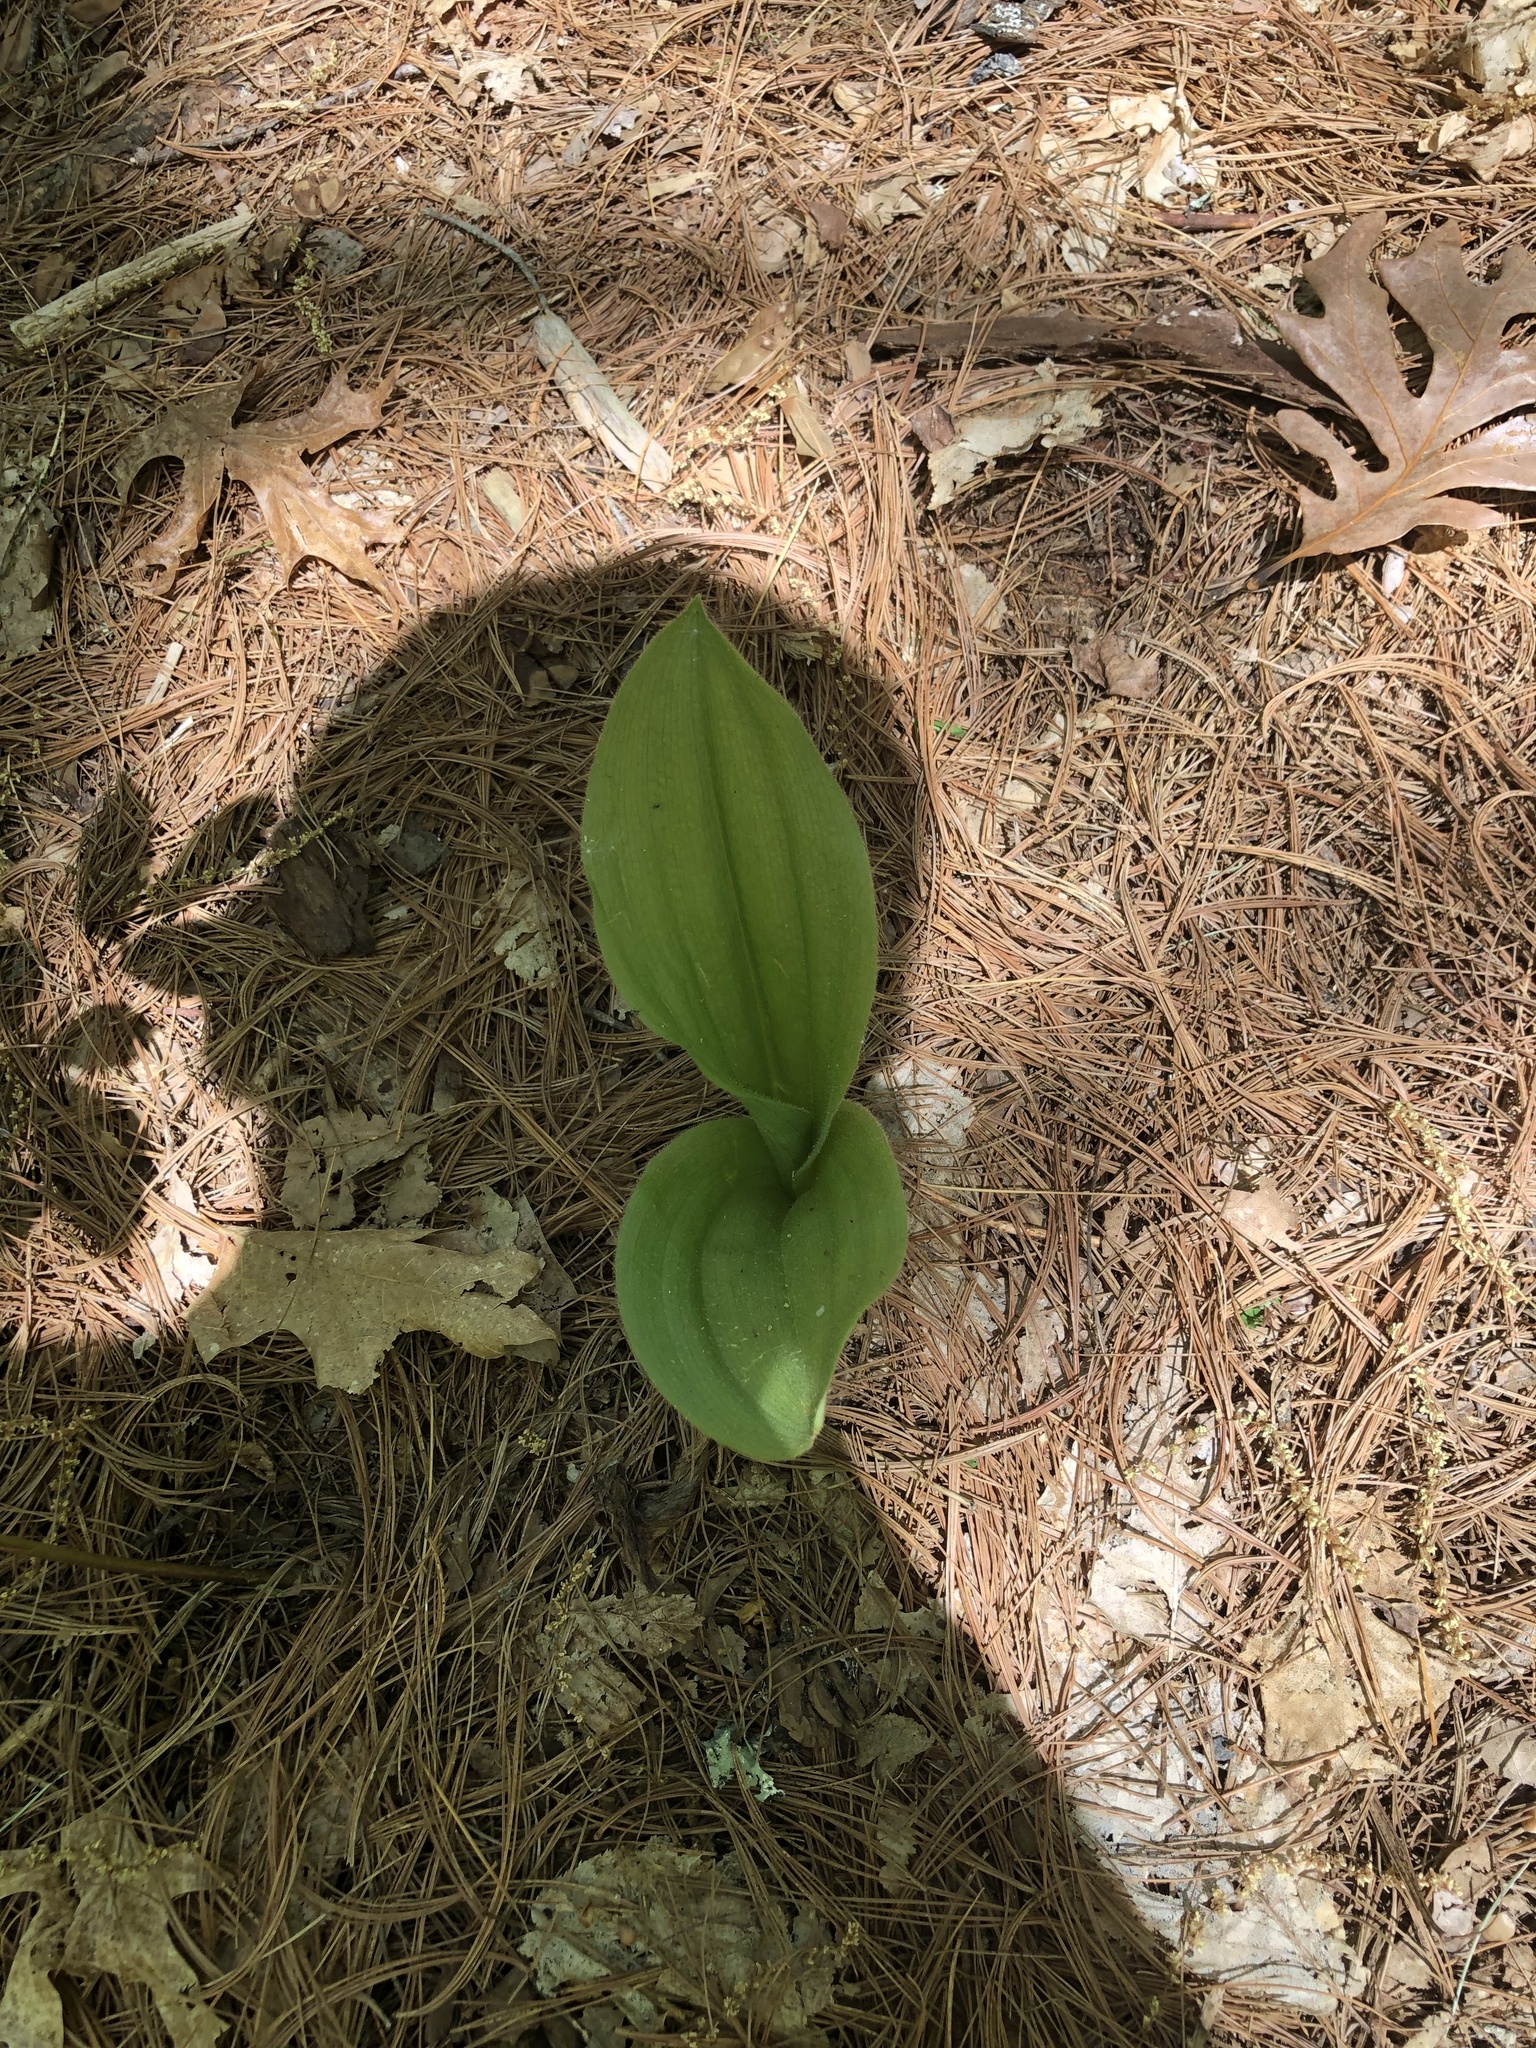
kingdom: Plantae
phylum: Tracheophyta
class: Liliopsida
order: Asparagales
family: Orchidaceae
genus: Cypripedium
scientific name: Cypripedium acaule
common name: Pink lady's-slipper
